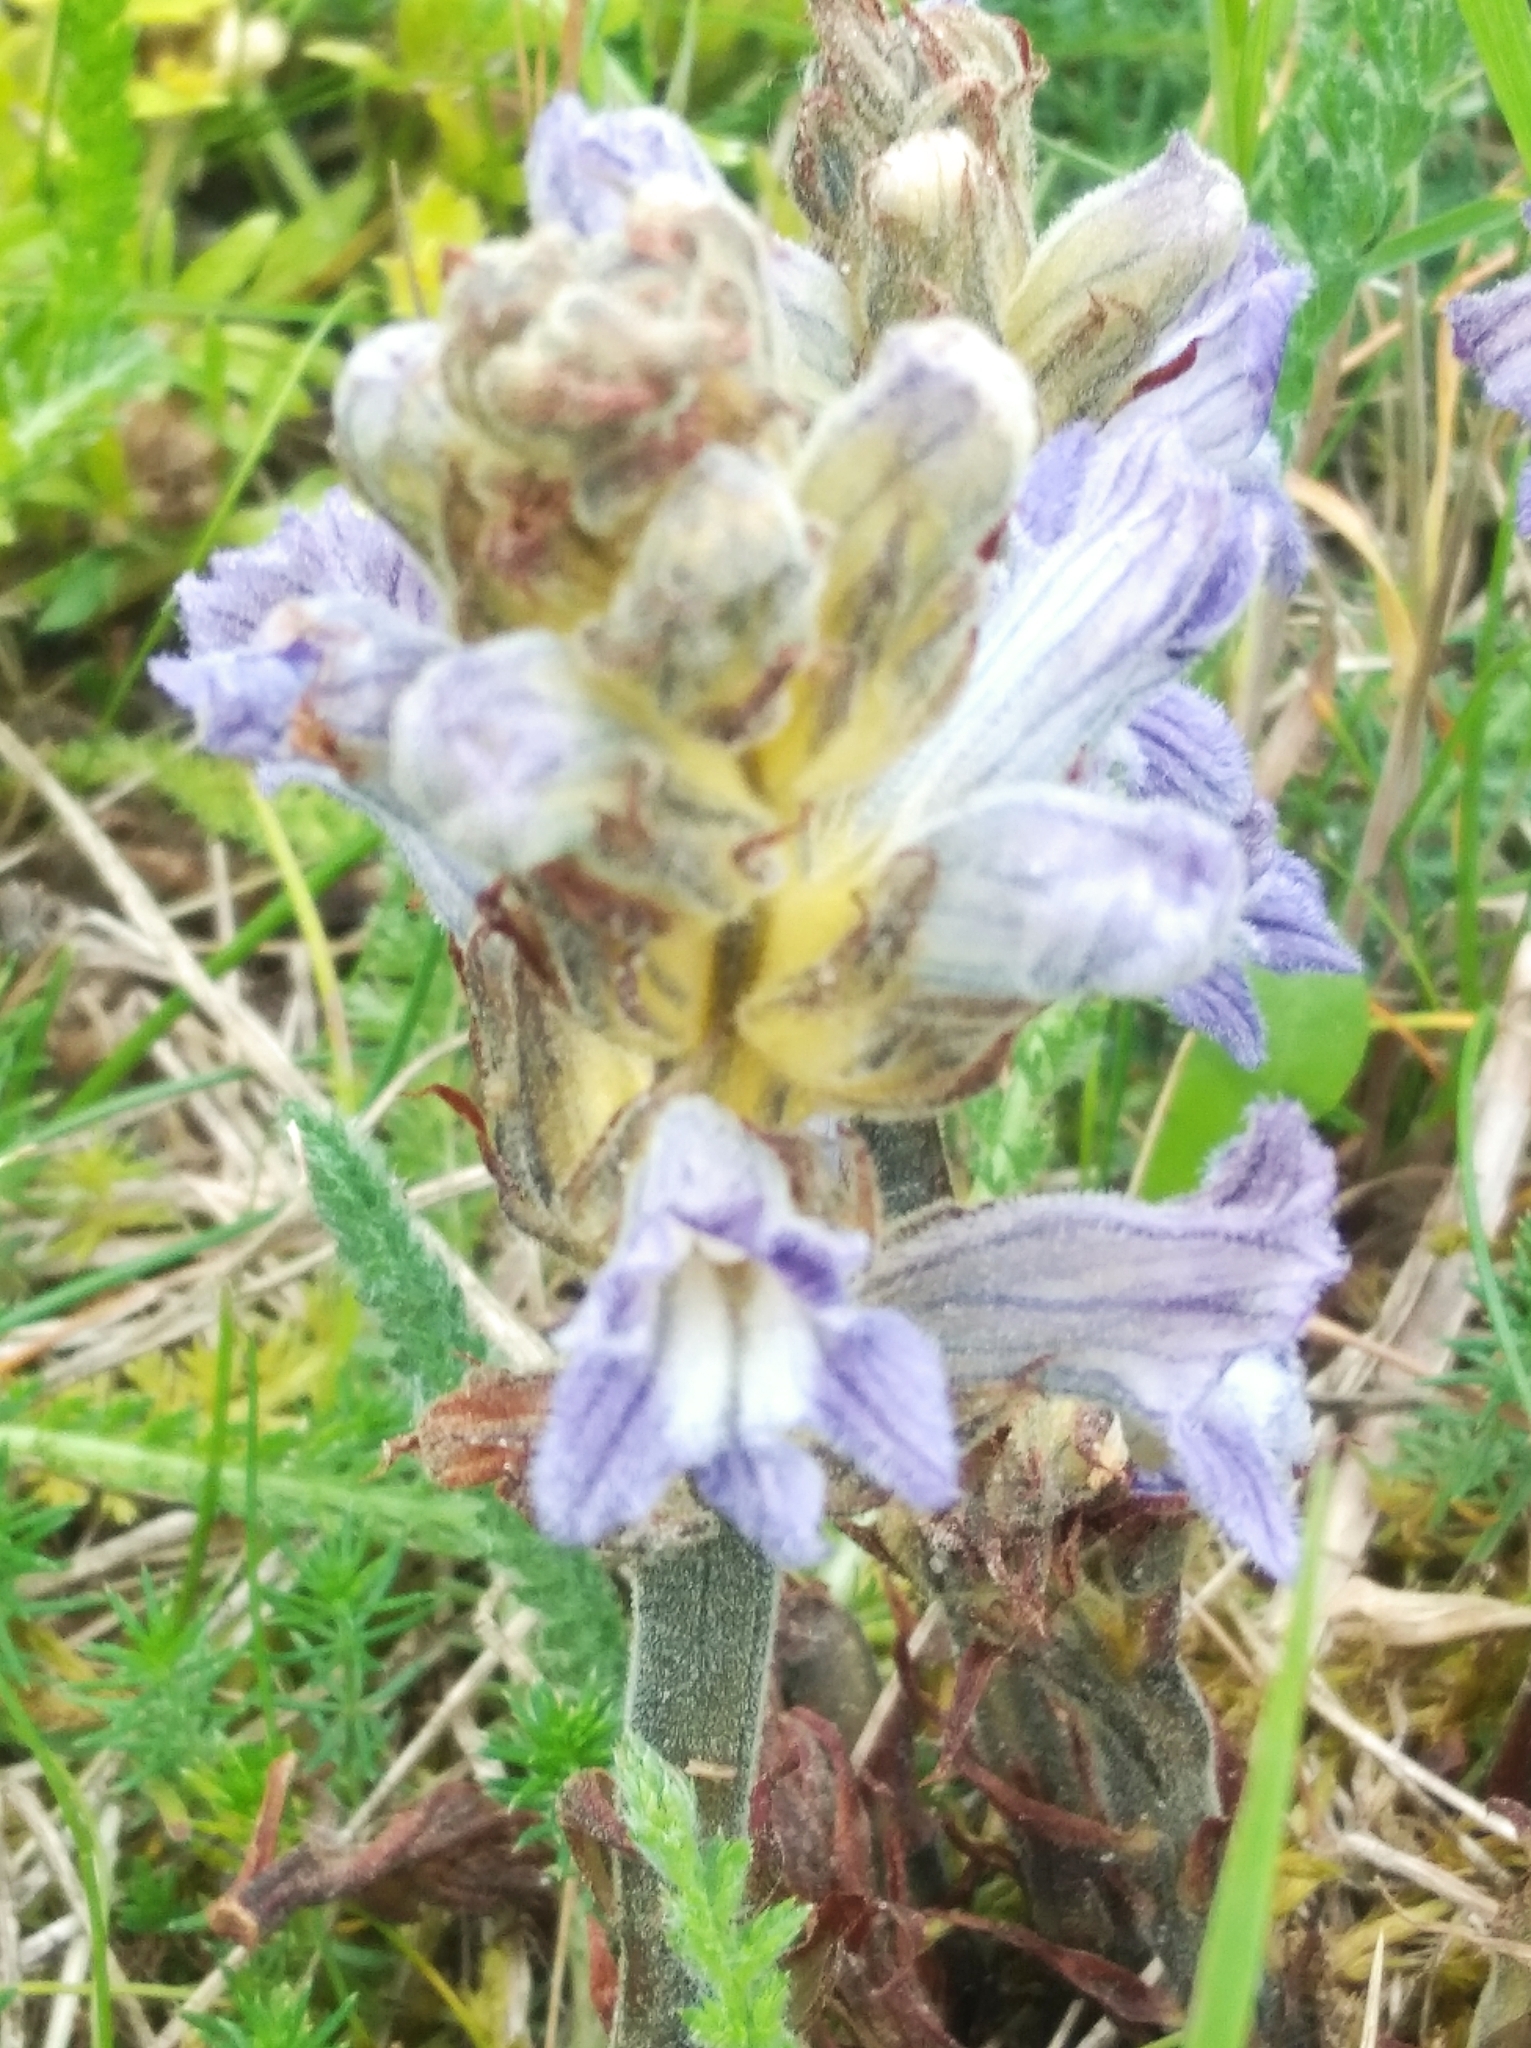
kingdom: Plantae
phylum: Tracheophyta
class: Magnoliopsida
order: Lamiales
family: Orobanchaceae
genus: Phelipanche
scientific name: Phelipanche purpurea
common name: Purple broomrape
